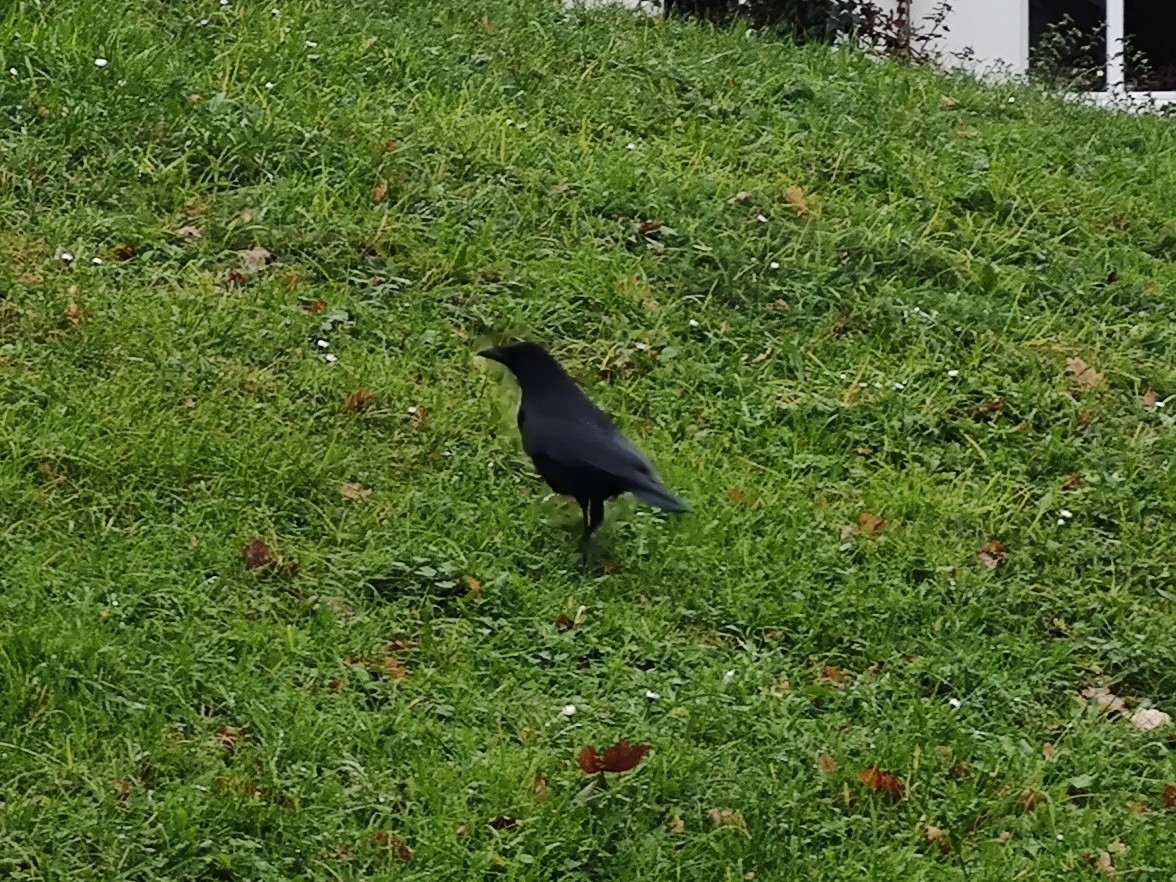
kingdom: Animalia
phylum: Chordata
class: Aves
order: Passeriformes
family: Corvidae
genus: Corvus
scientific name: Corvus corone
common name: Carrion crow
